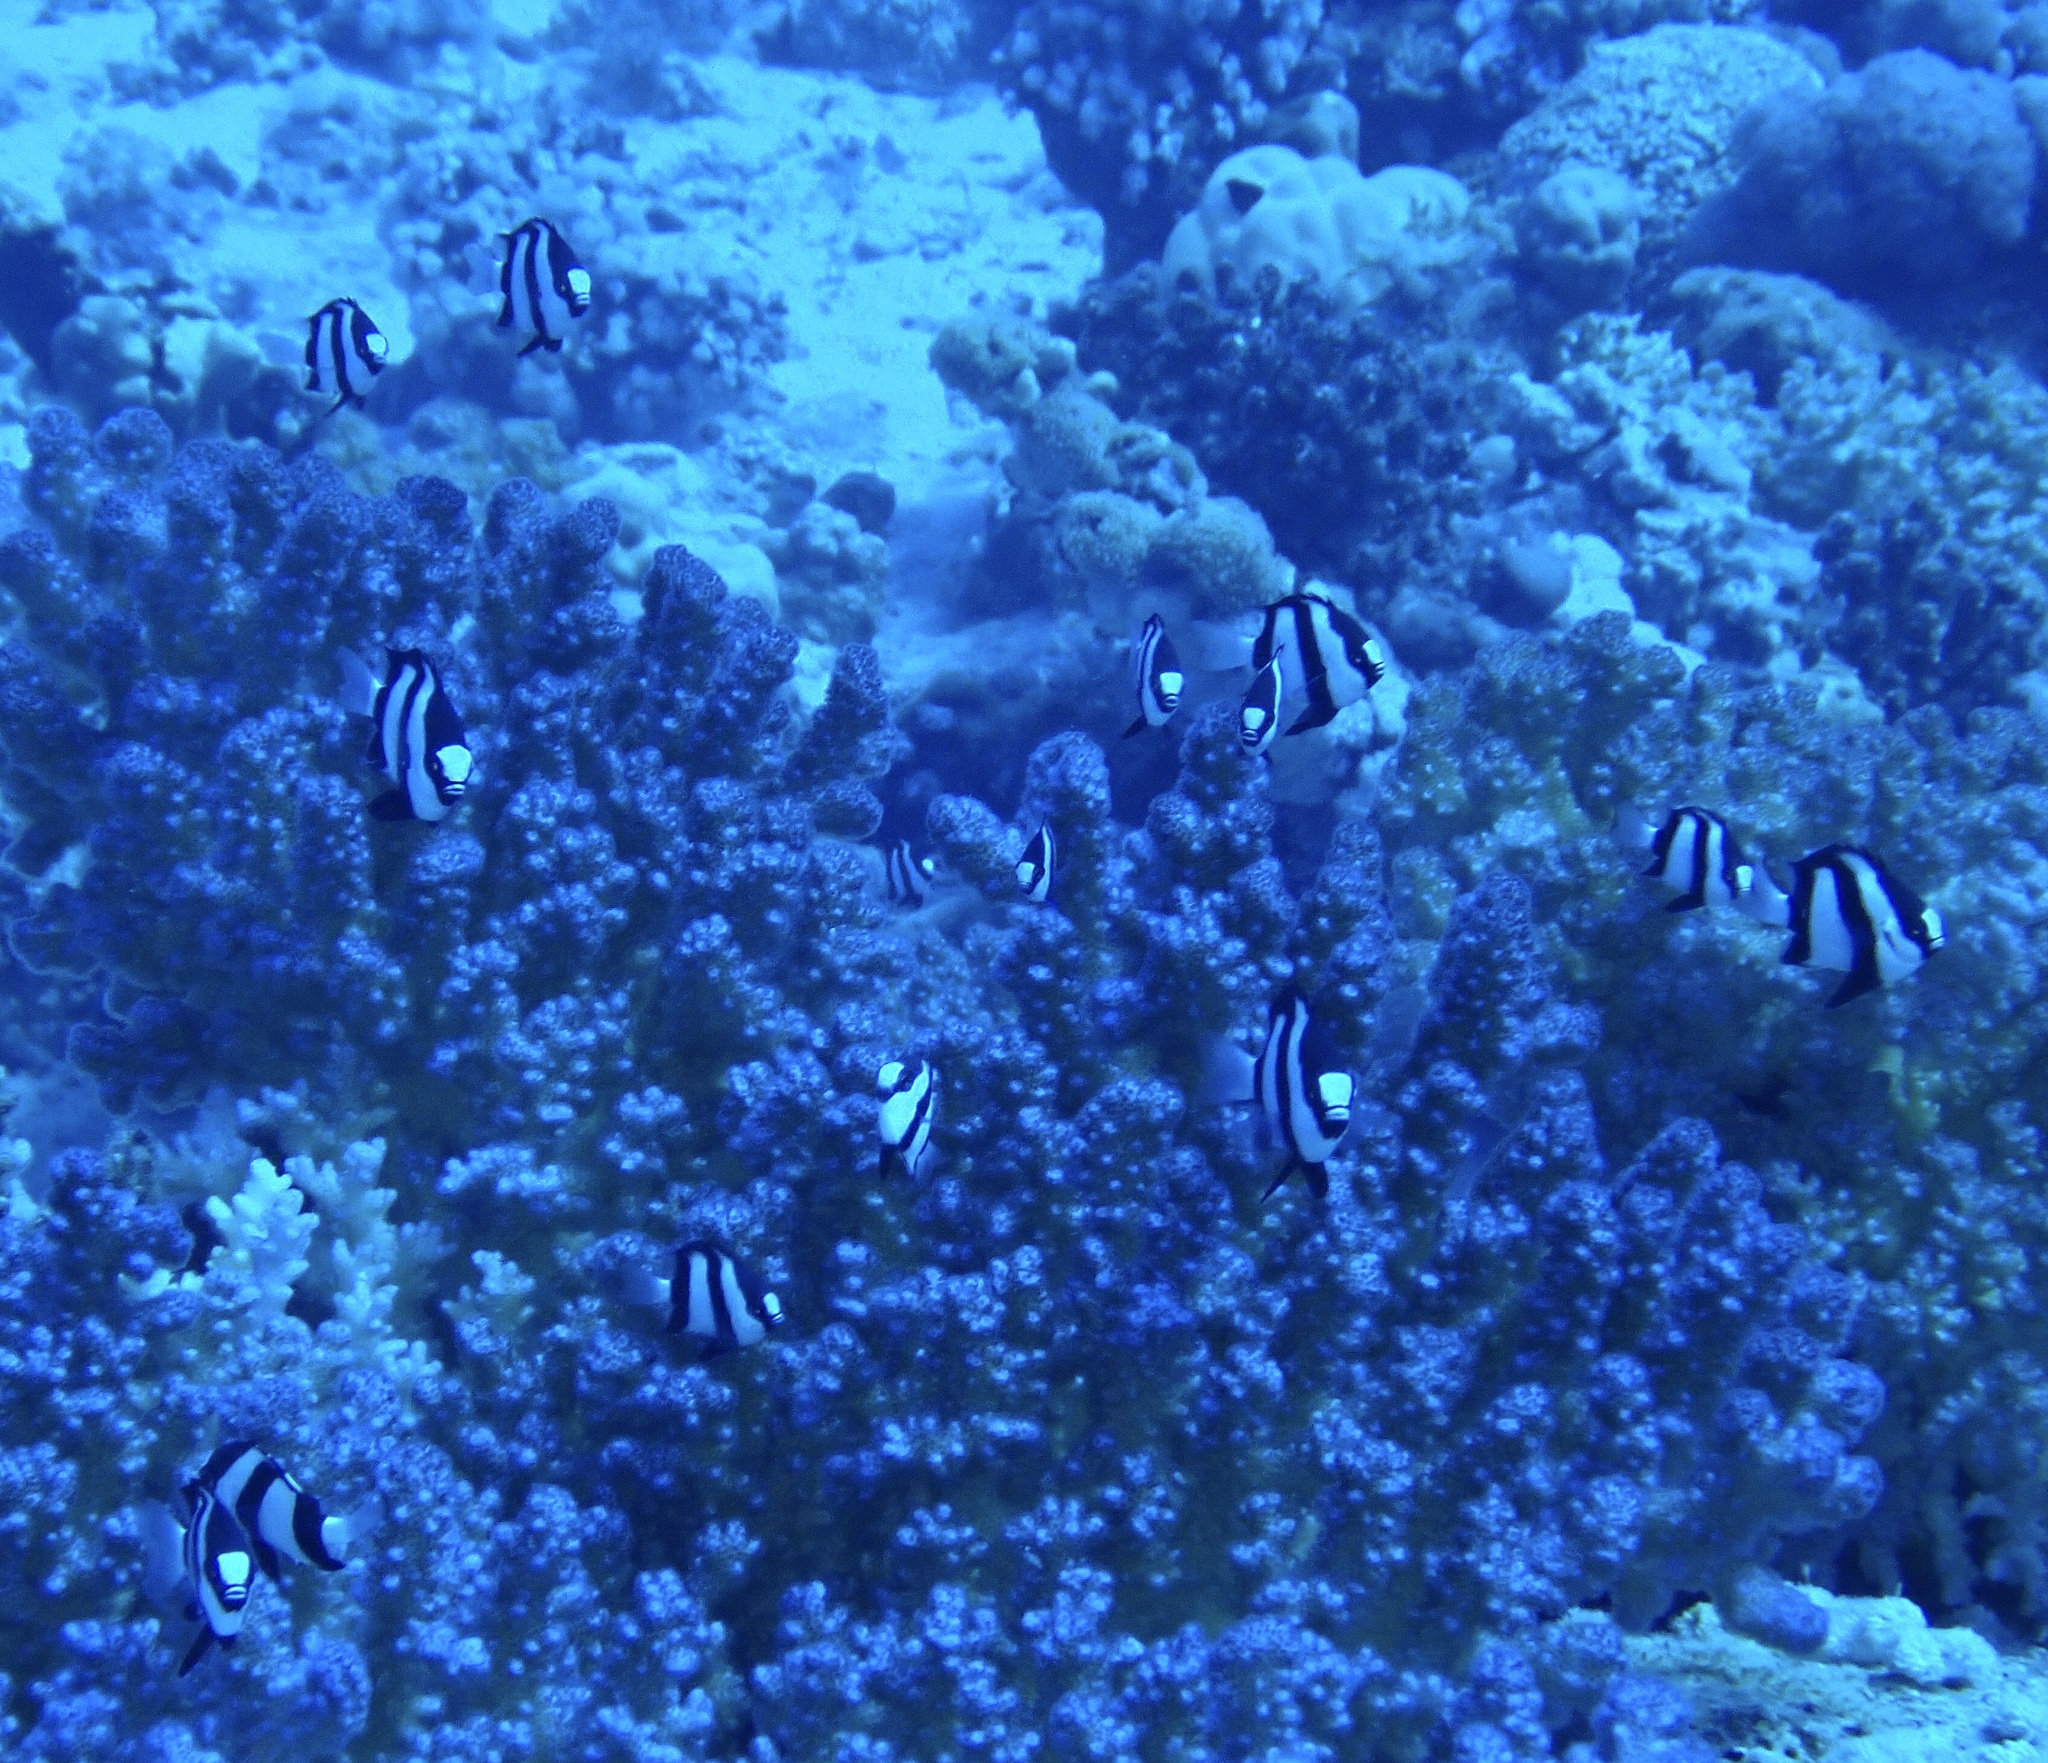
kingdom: Animalia
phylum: Chordata
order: Perciformes
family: Pomacentridae
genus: Dascyllus
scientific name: Dascyllus abudafur
